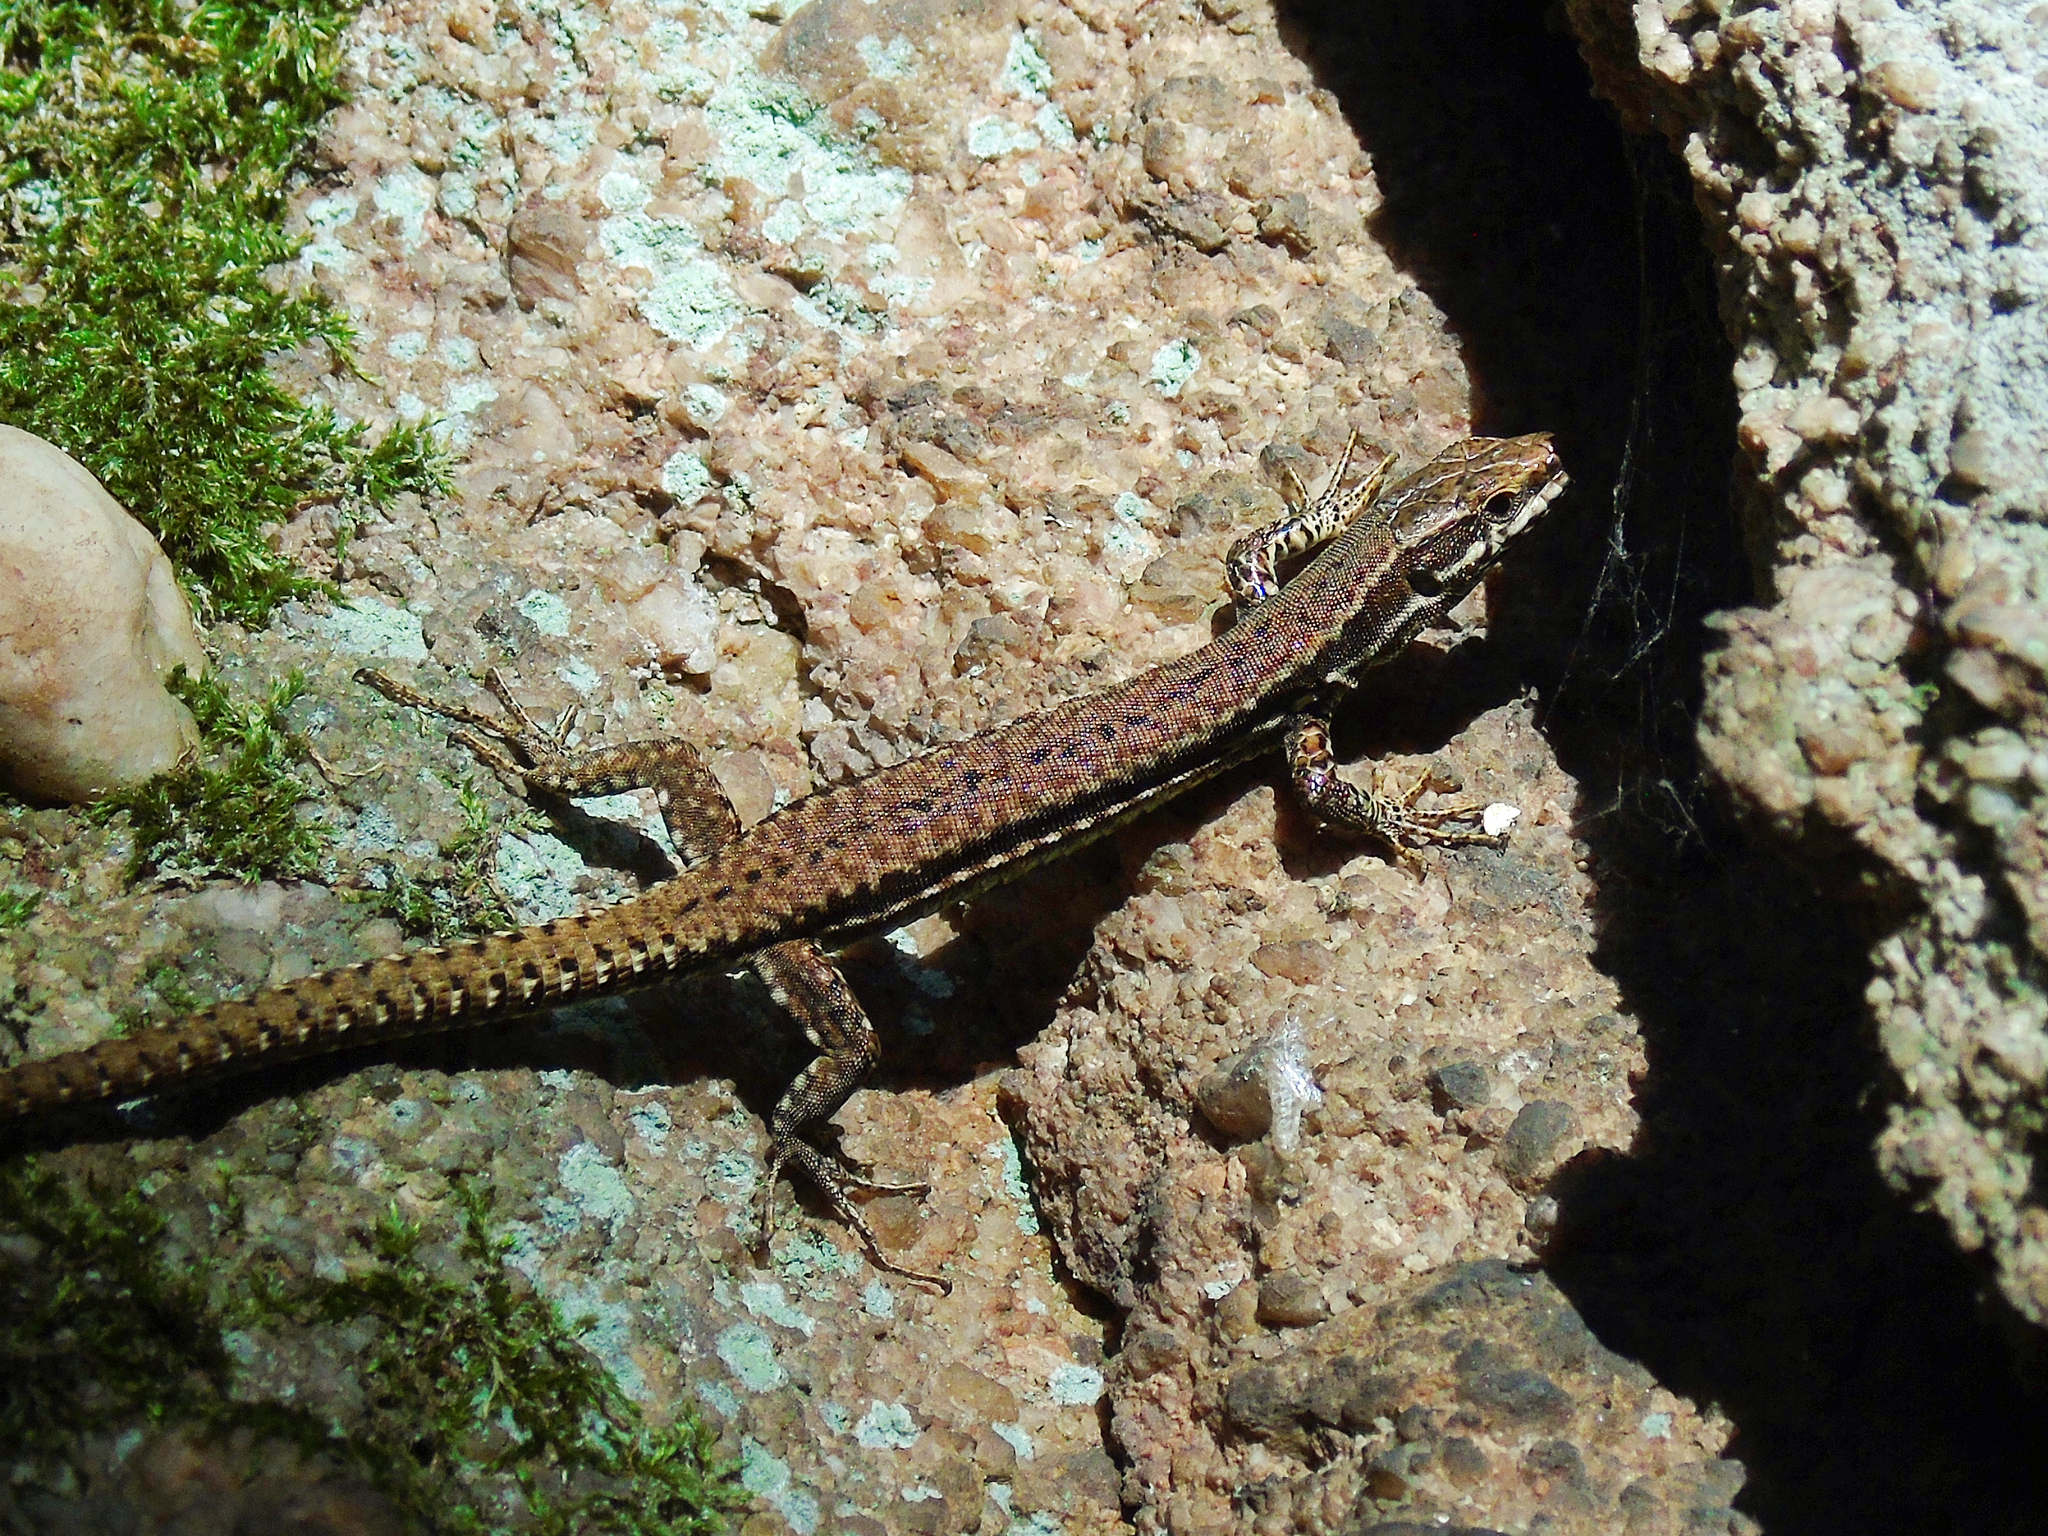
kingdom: Animalia
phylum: Chordata
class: Squamata
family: Lacertidae
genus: Podarcis
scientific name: Podarcis muralis
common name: Common wall lizard
